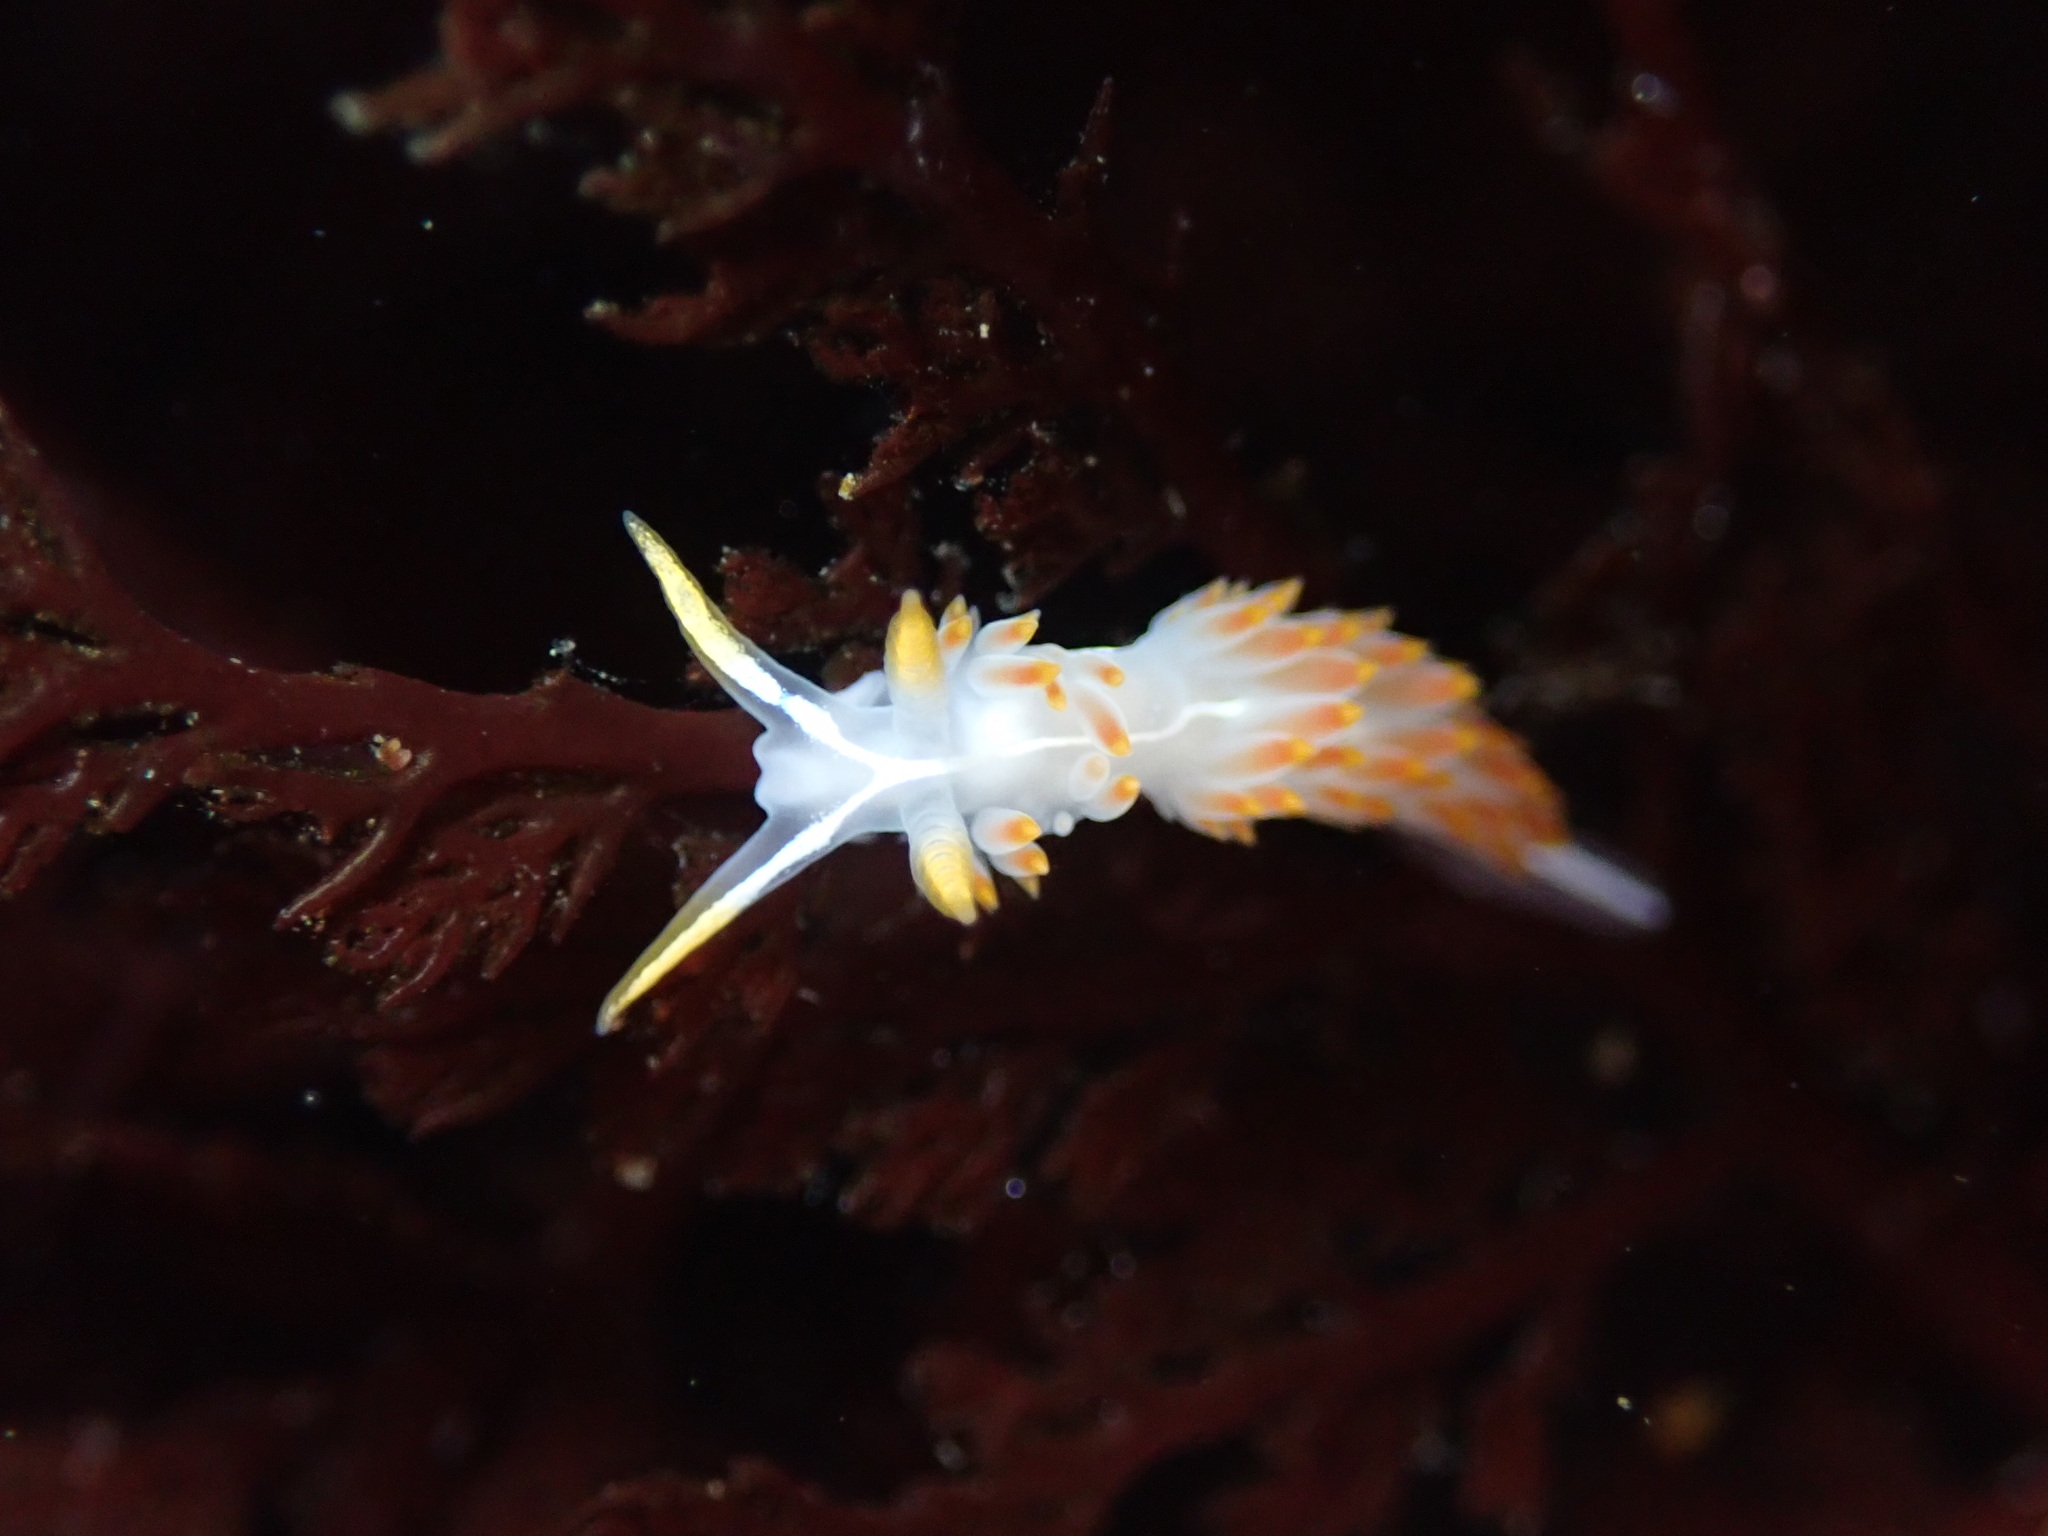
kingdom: Animalia
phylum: Mollusca
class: Gastropoda
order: Nudibranchia
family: Coryphellidae
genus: Coryphella
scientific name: Coryphella trilineata
